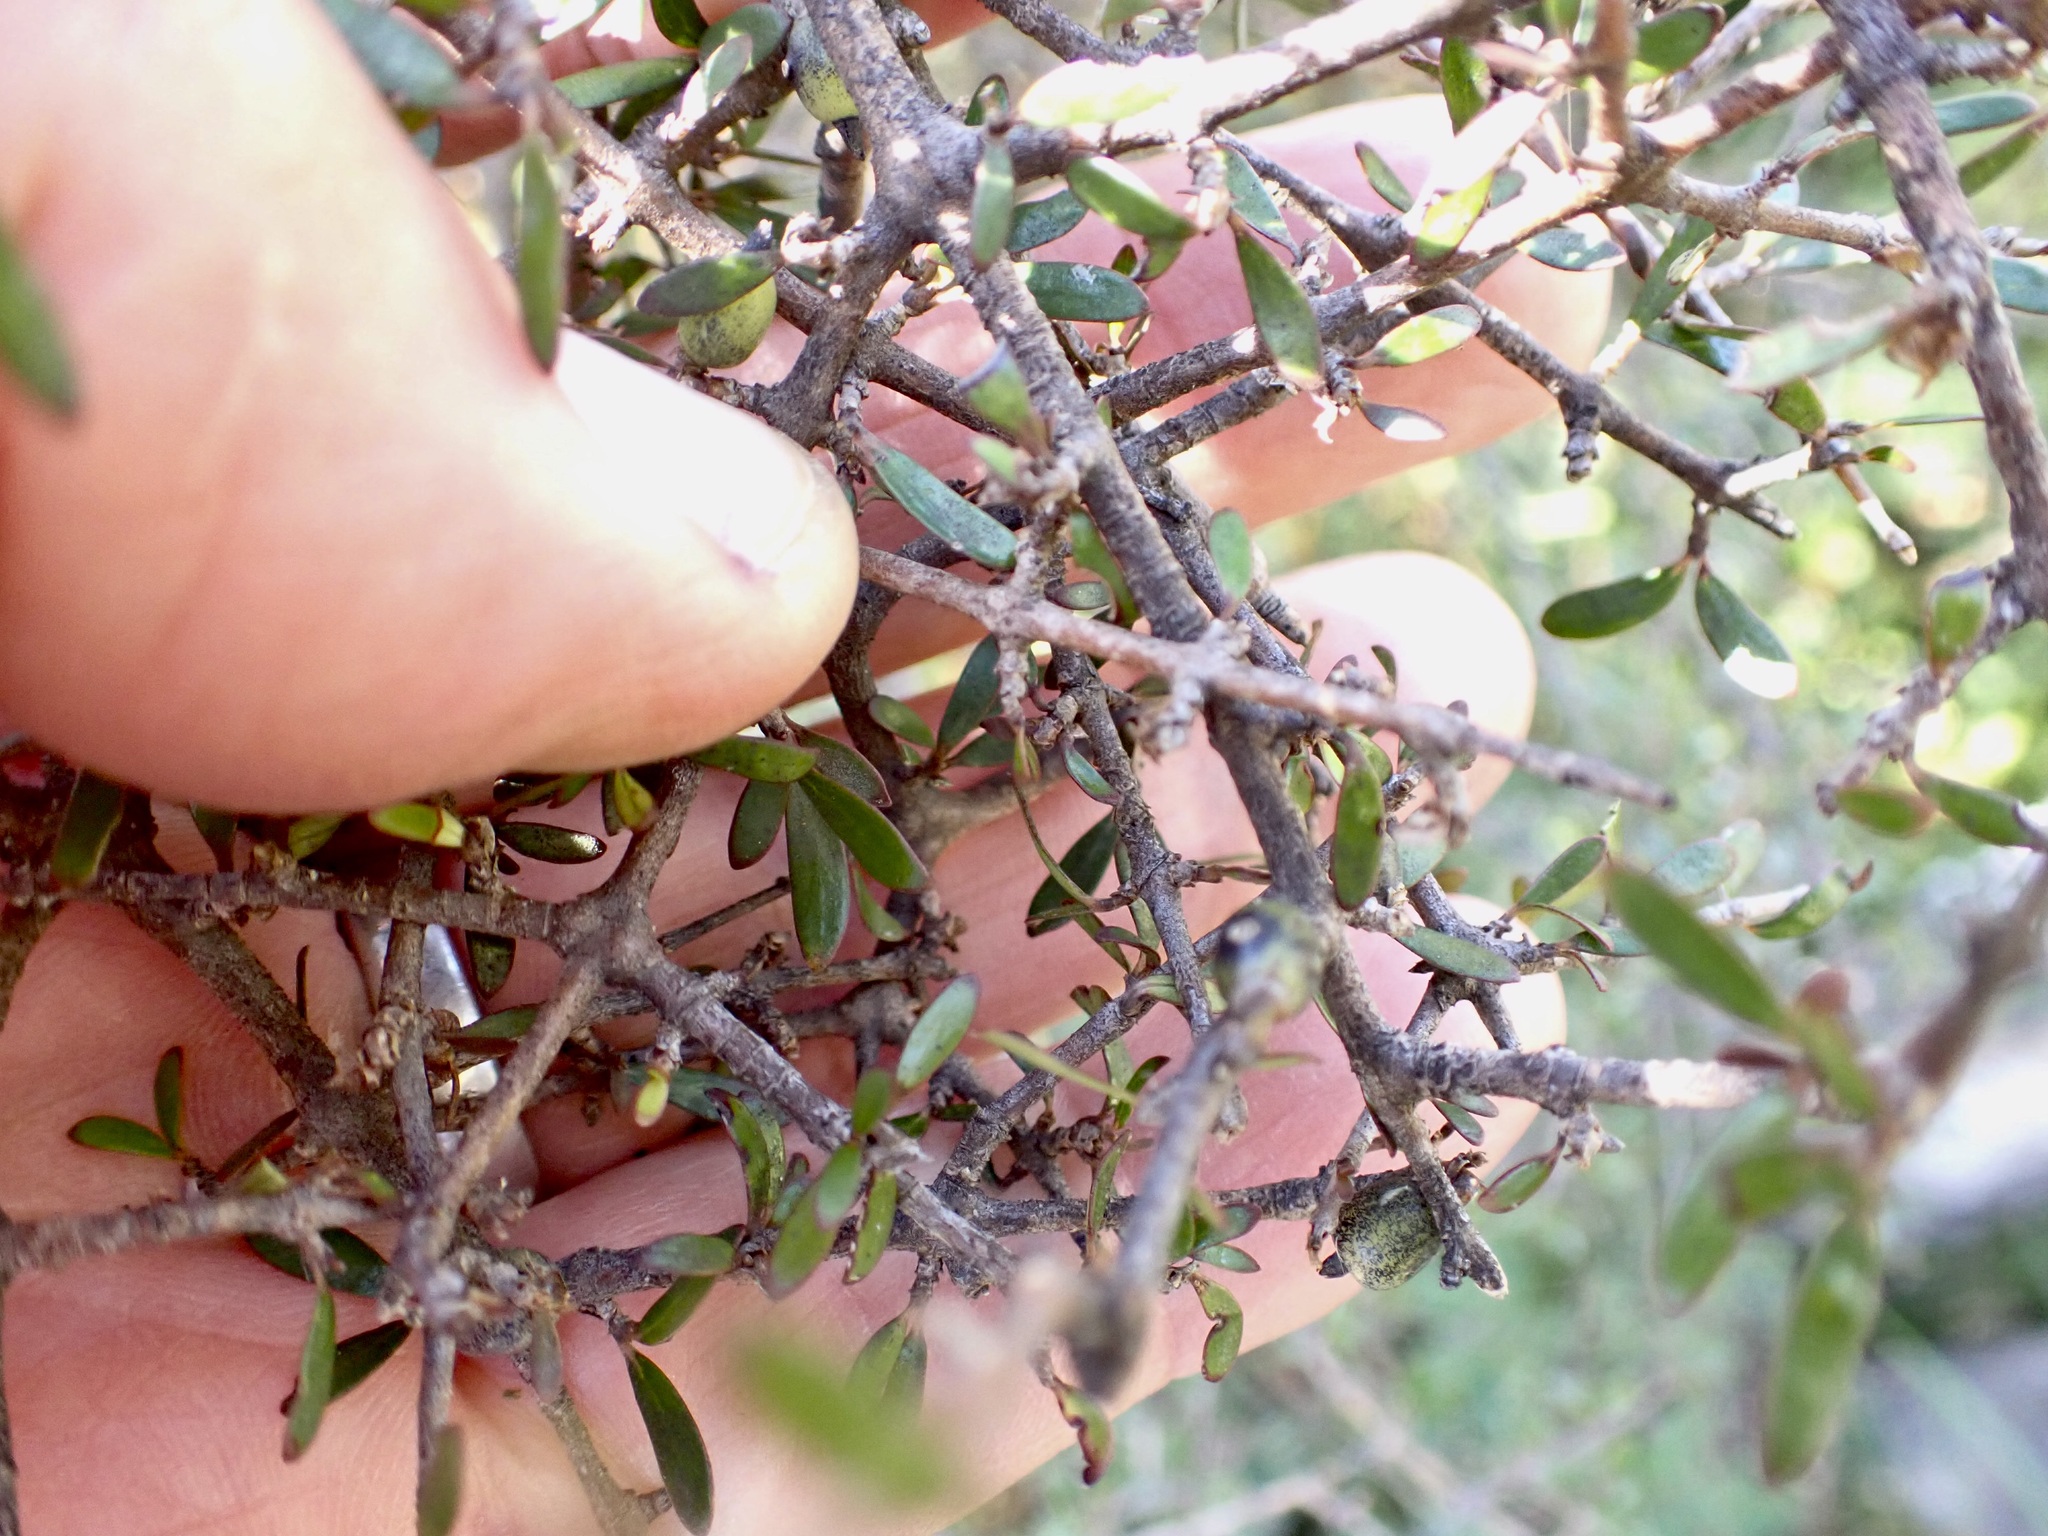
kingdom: Plantae
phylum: Tracheophyta
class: Magnoliopsida
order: Gentianales
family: Rubiaceae
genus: Coprosma
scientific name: Coprosma propinqua
